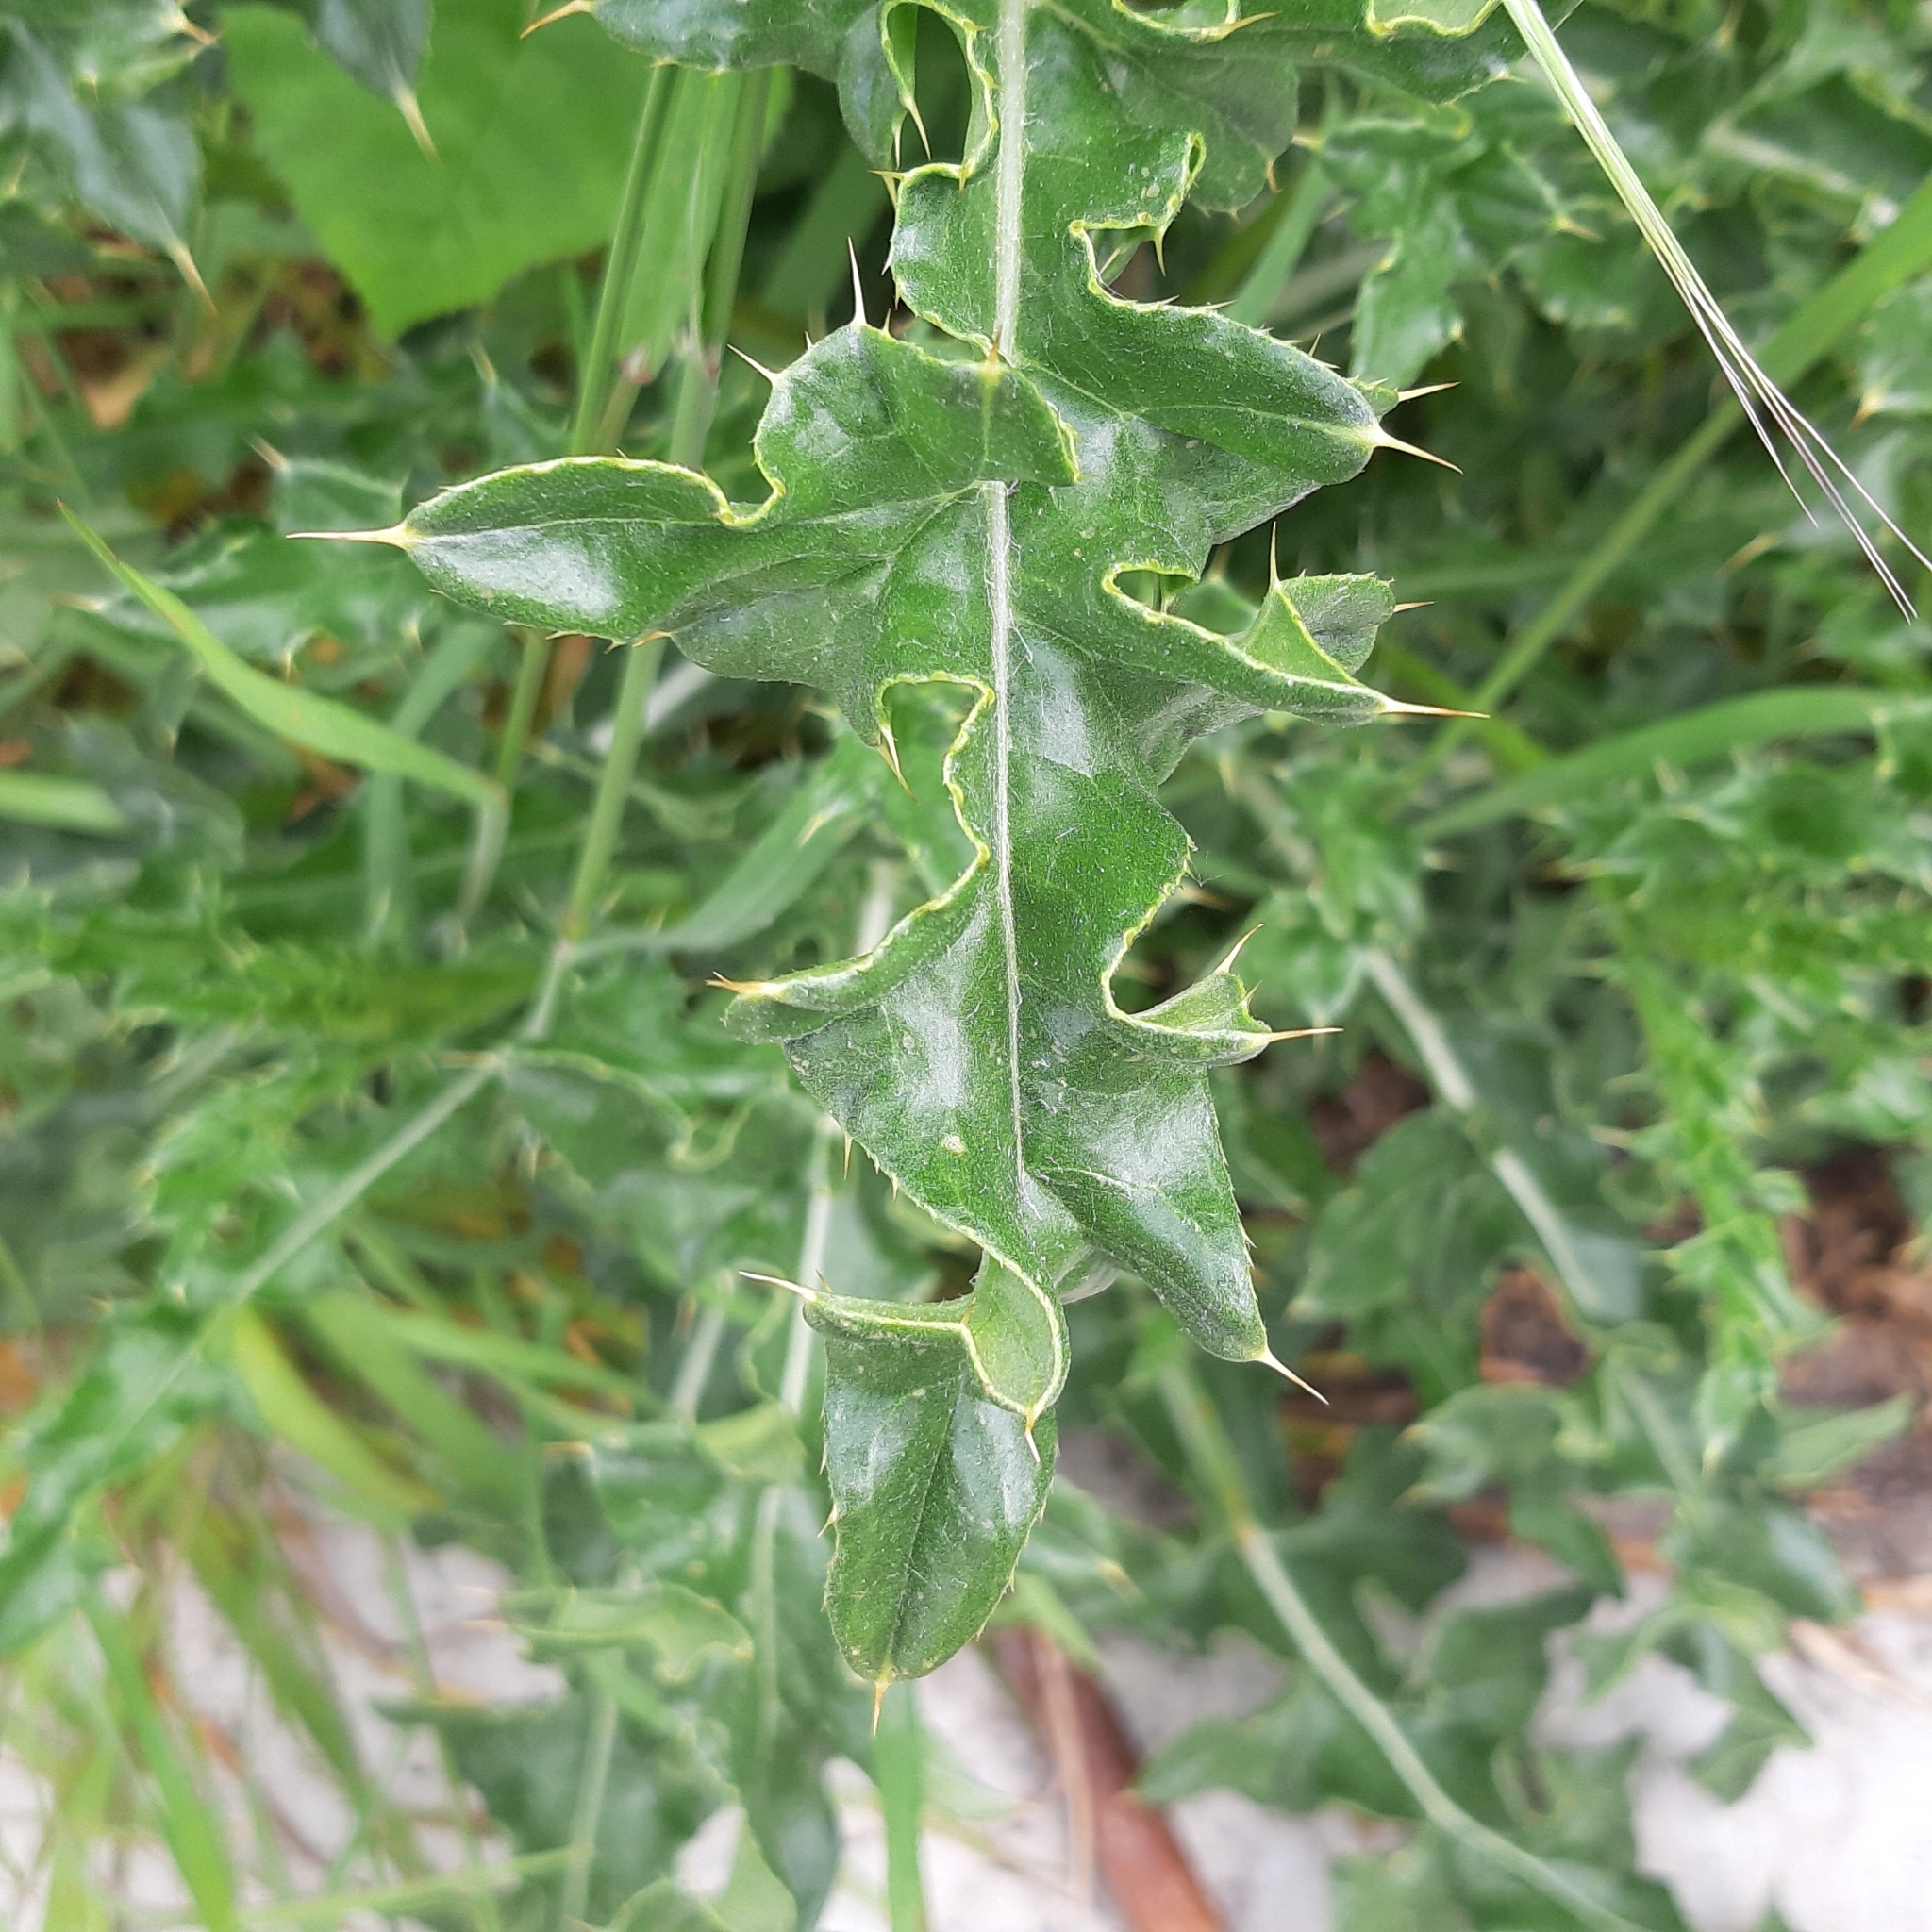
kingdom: Plantae
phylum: Tracheophyta
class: Magnoliopsida
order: Asterales
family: Asteraceae
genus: Cirsium
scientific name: Cirsium arvense
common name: Creeping thistle
